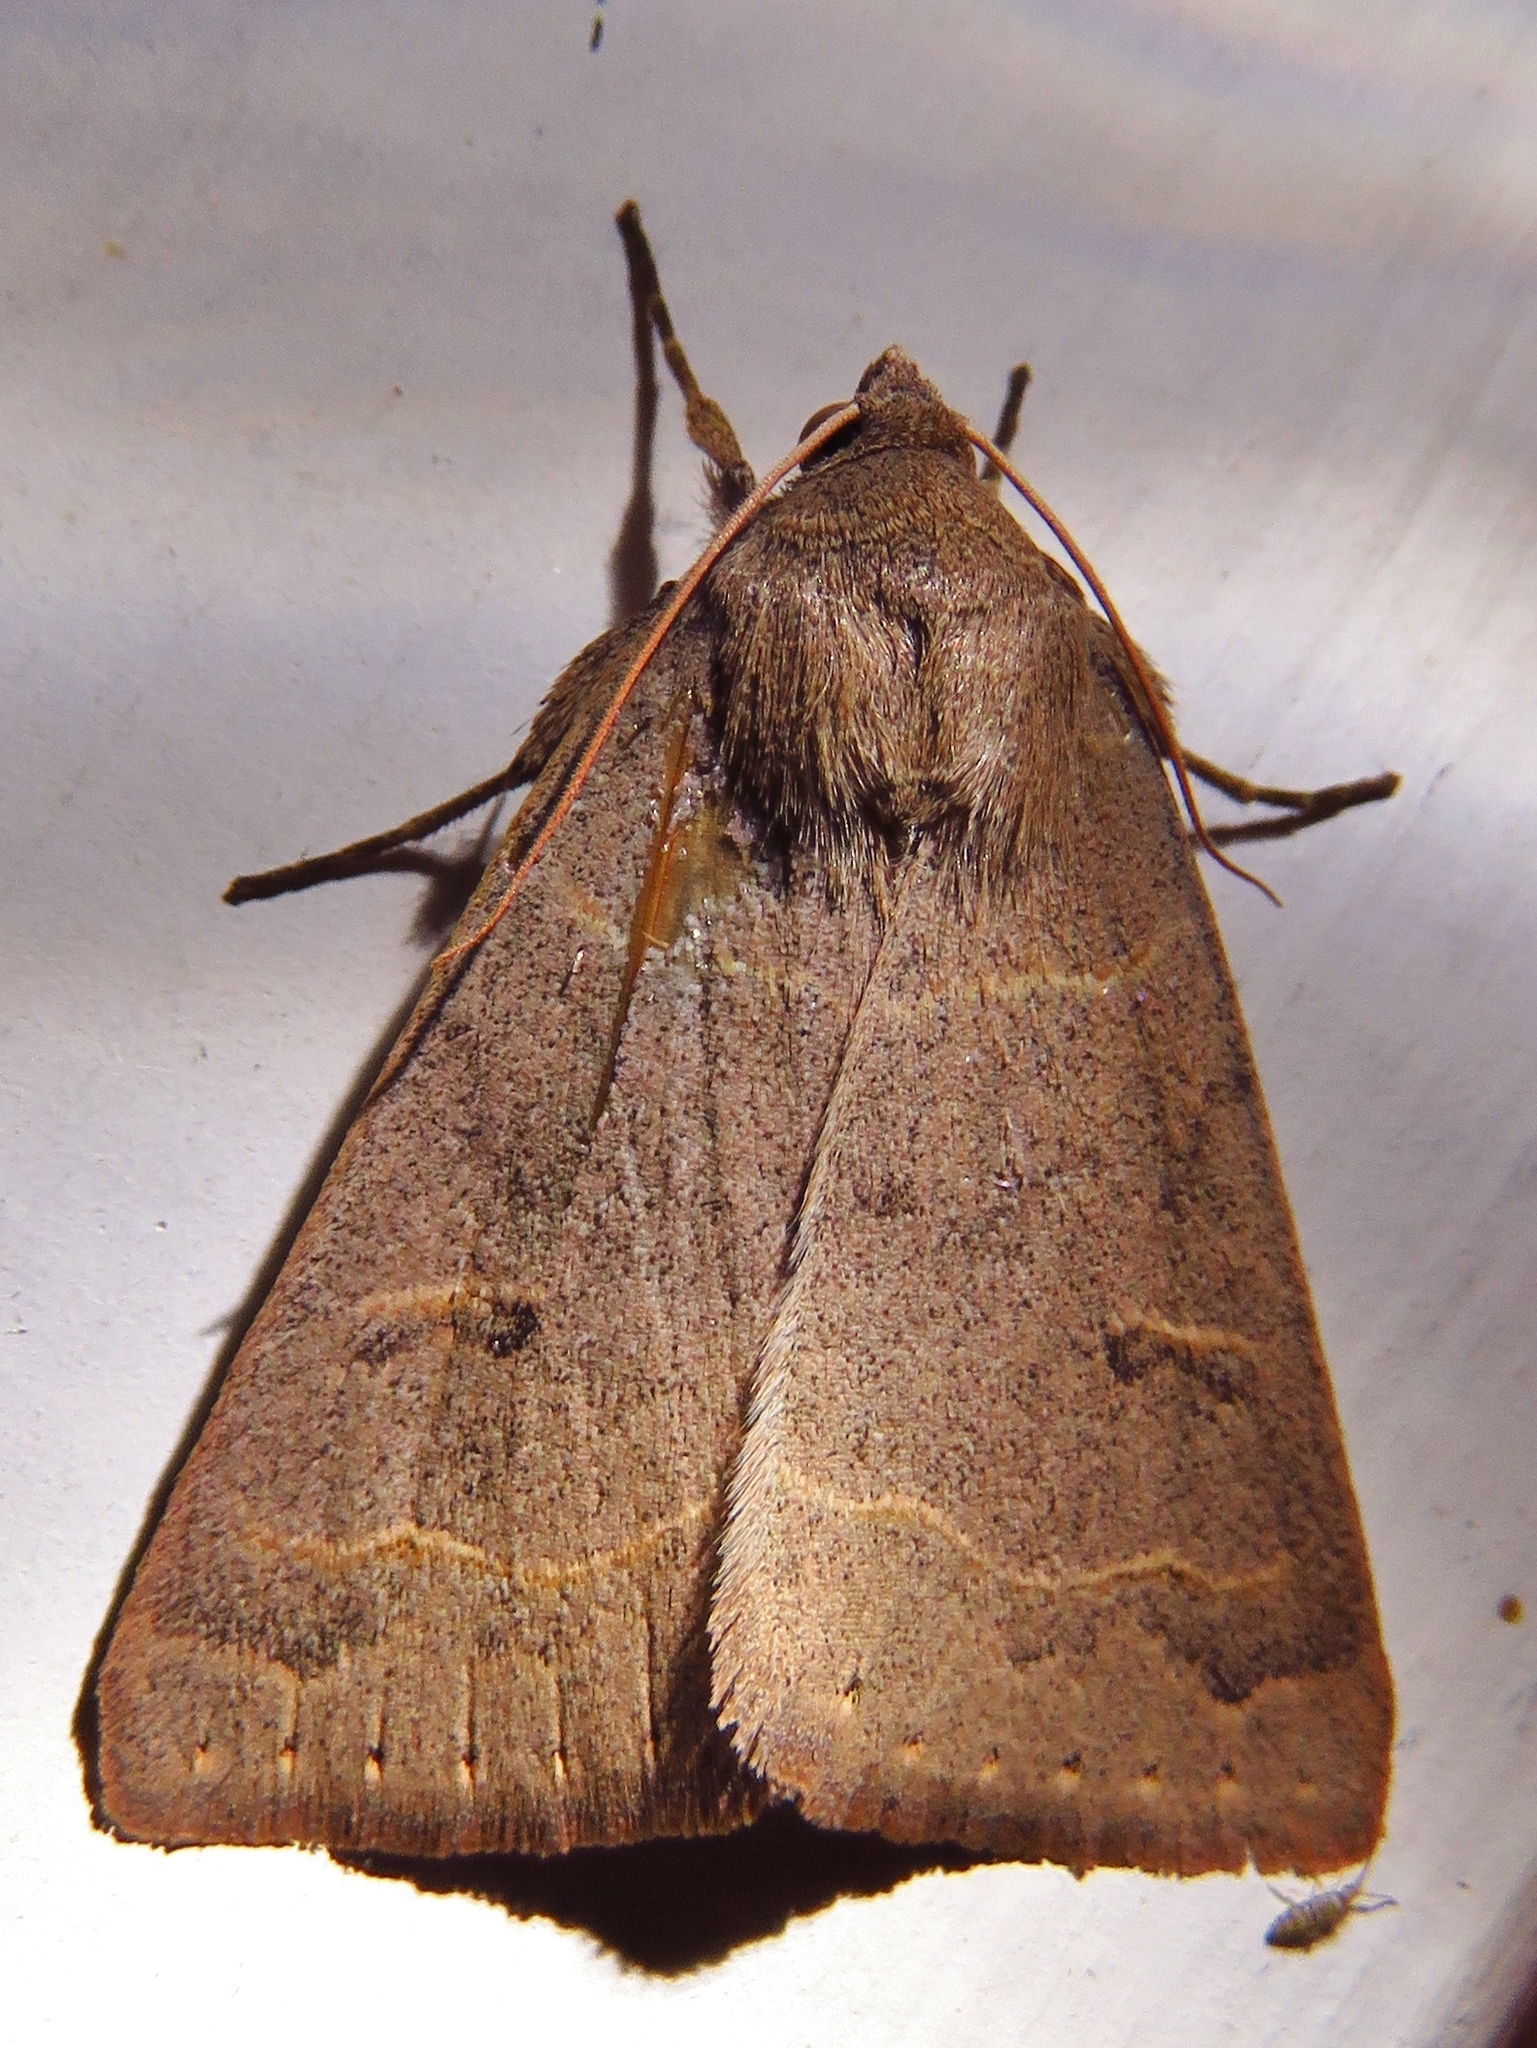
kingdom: Animalia
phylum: Arthropoda
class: Insecta
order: Lepidoptera
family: Erebidae
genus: Phoberia
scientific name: Phoberia atomaris
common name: Common oak moth
